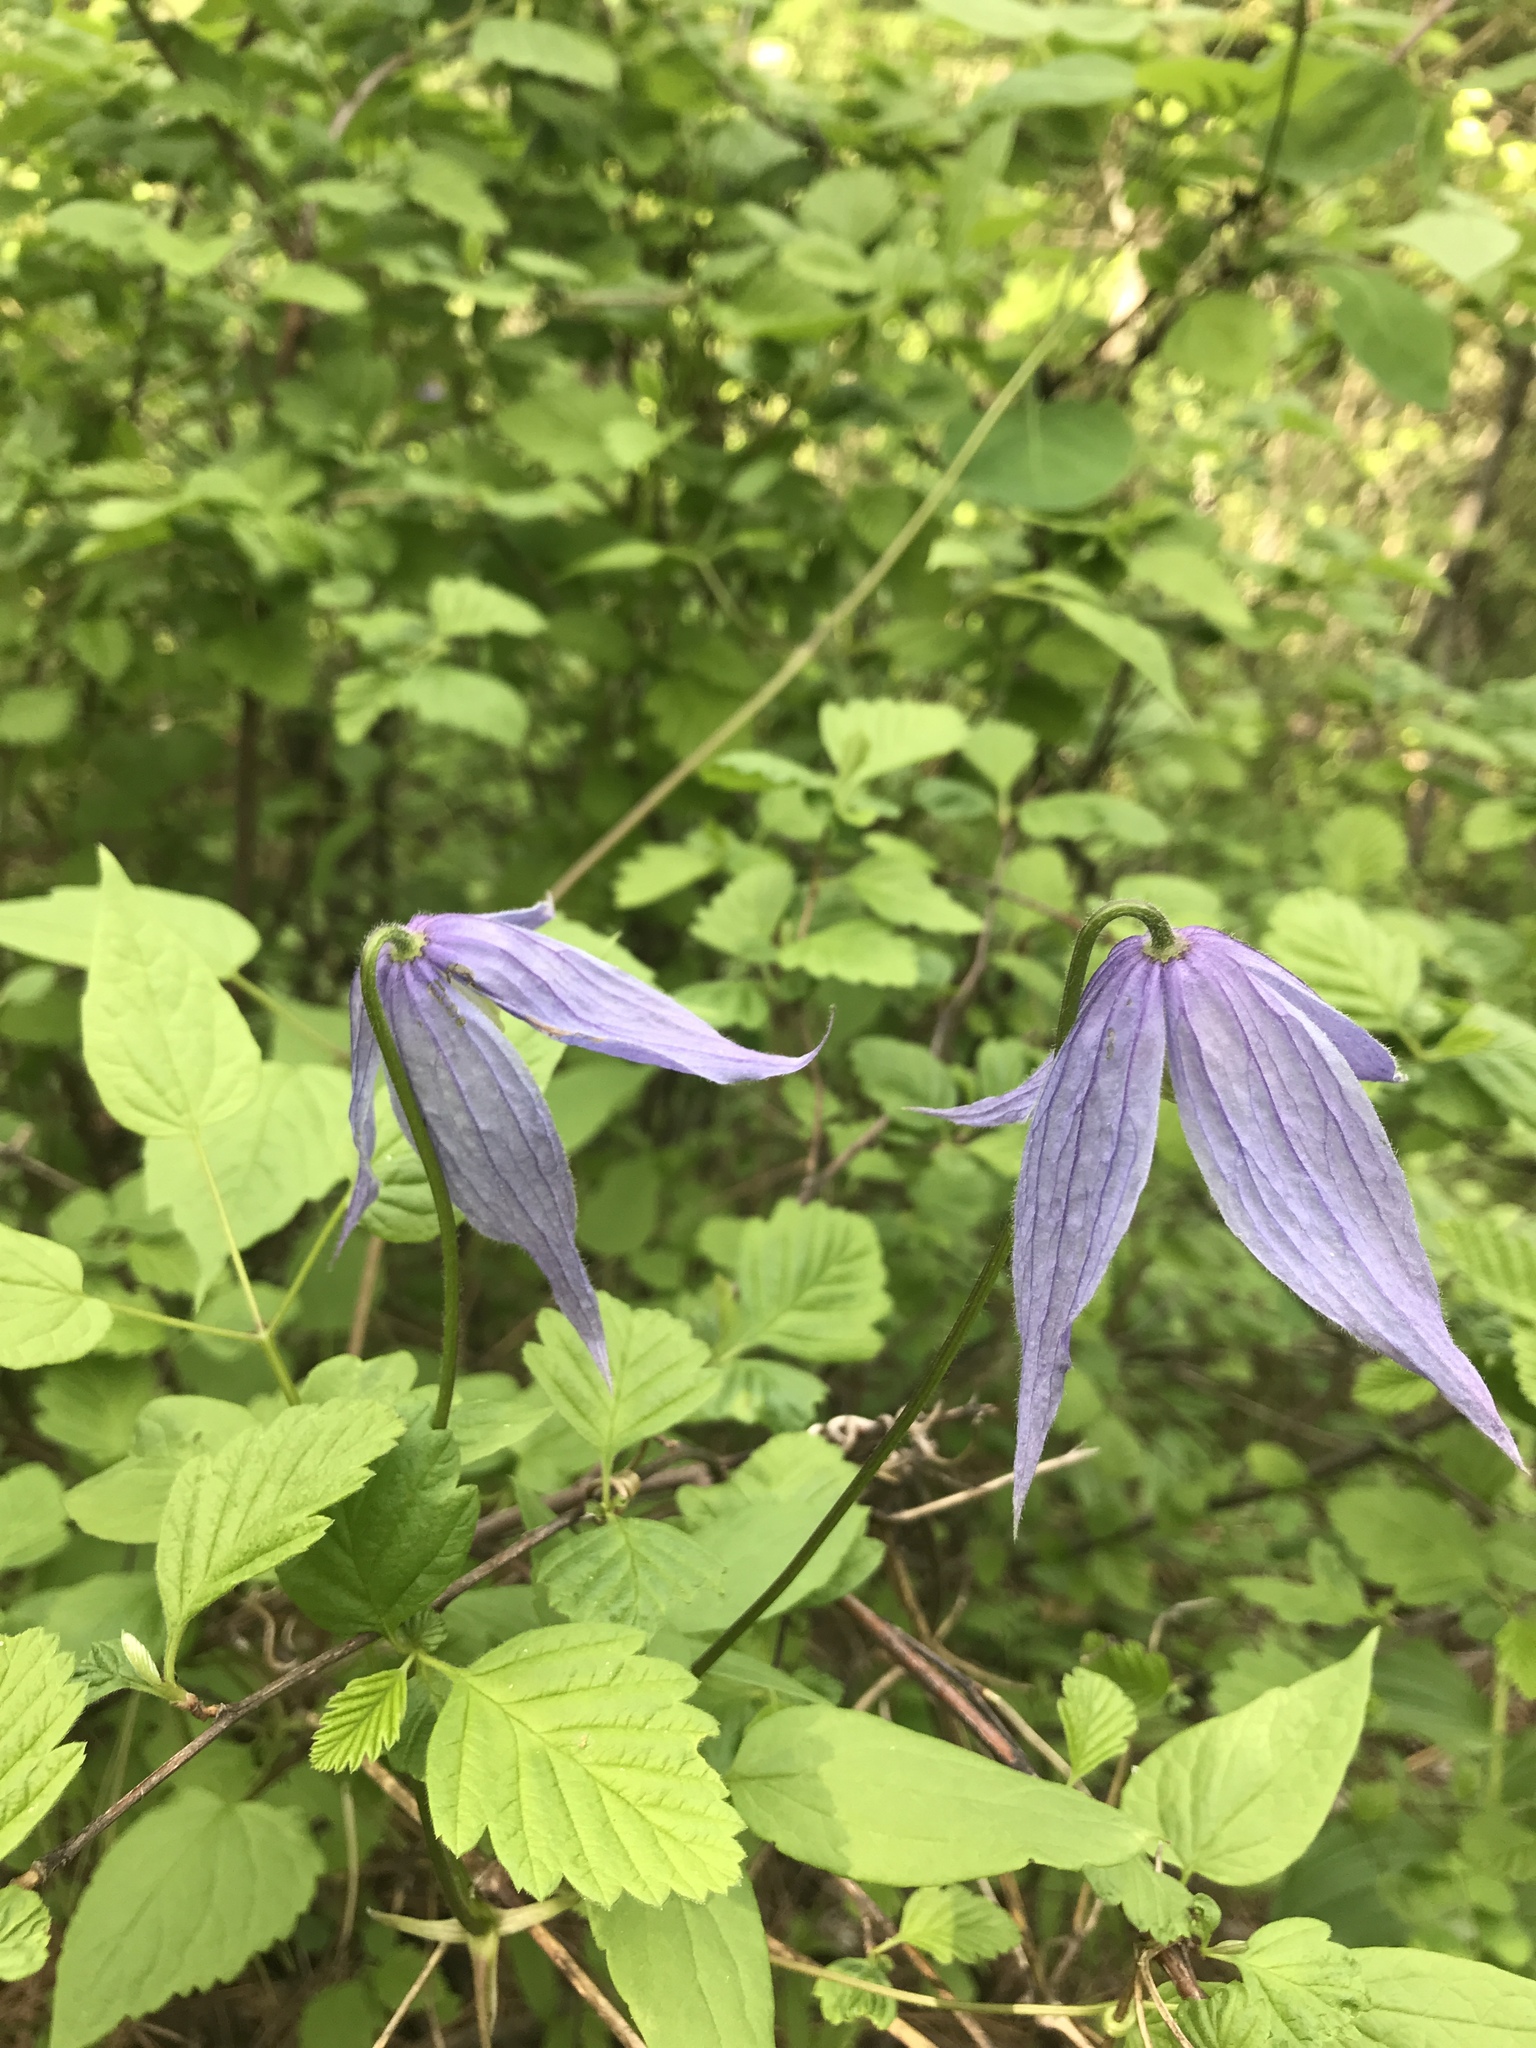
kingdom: Plantae
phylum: Tracheophyta
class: Magnoliopsida
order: Ranunculales
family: Ranunculaceae
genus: Clematis
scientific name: Clematis occidentalis
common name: Purple clematis
